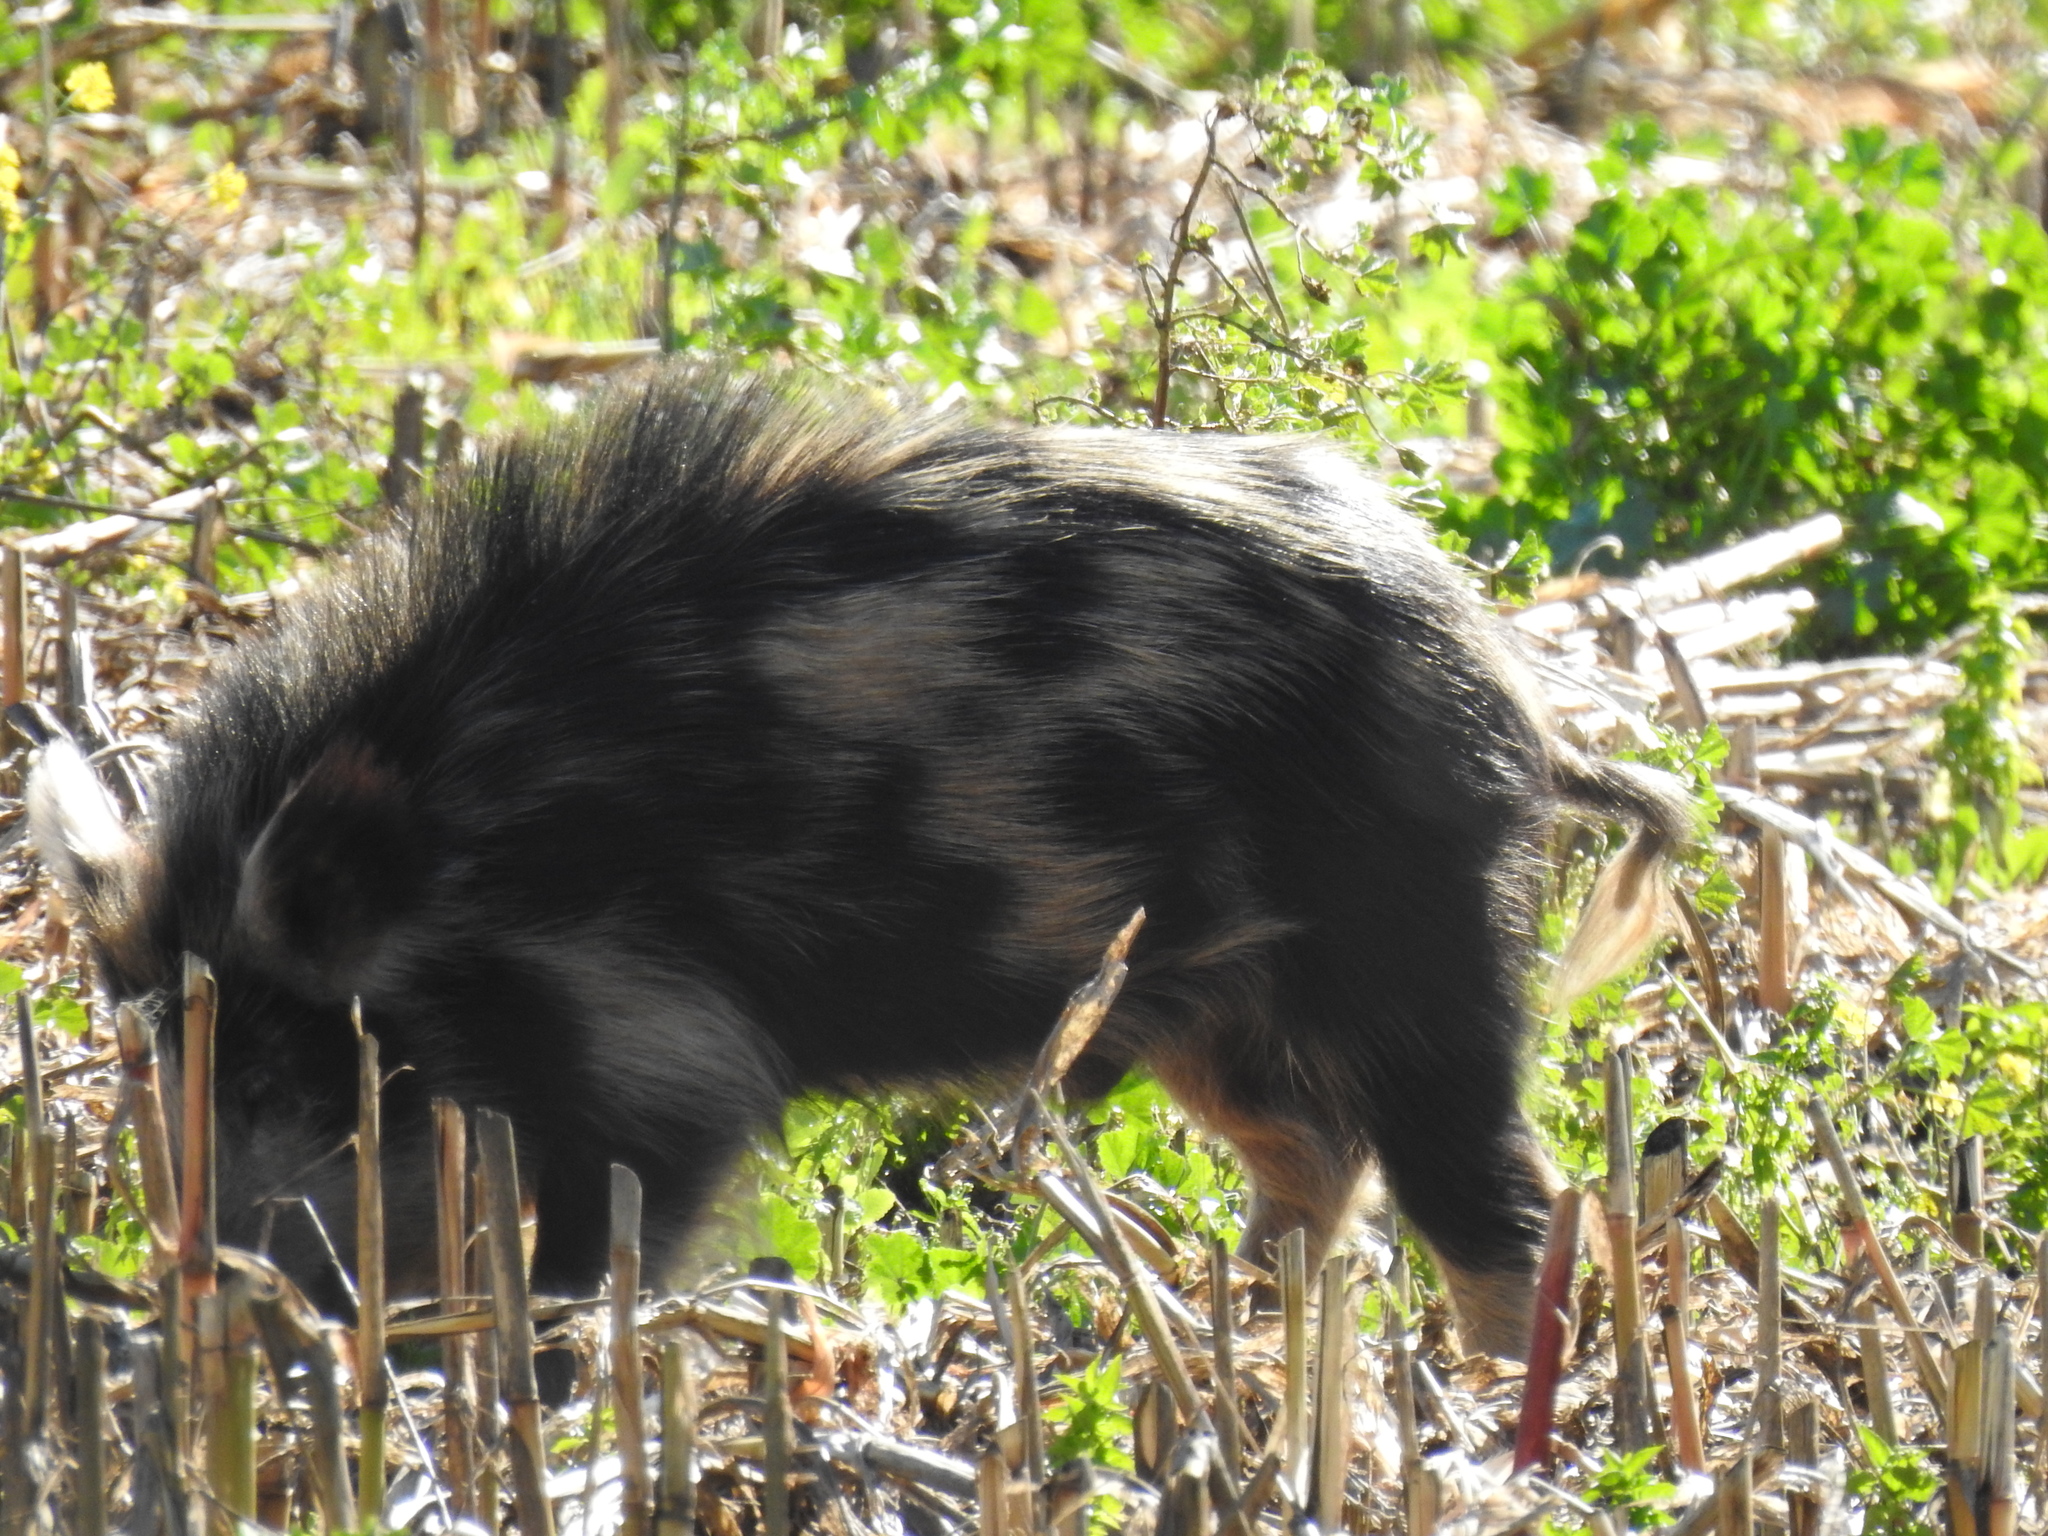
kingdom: Animalia
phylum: Chordata
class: Mammalia
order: Artiodactyla
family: Suidae
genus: Sus
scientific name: Sus scrofa
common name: Wild boar
